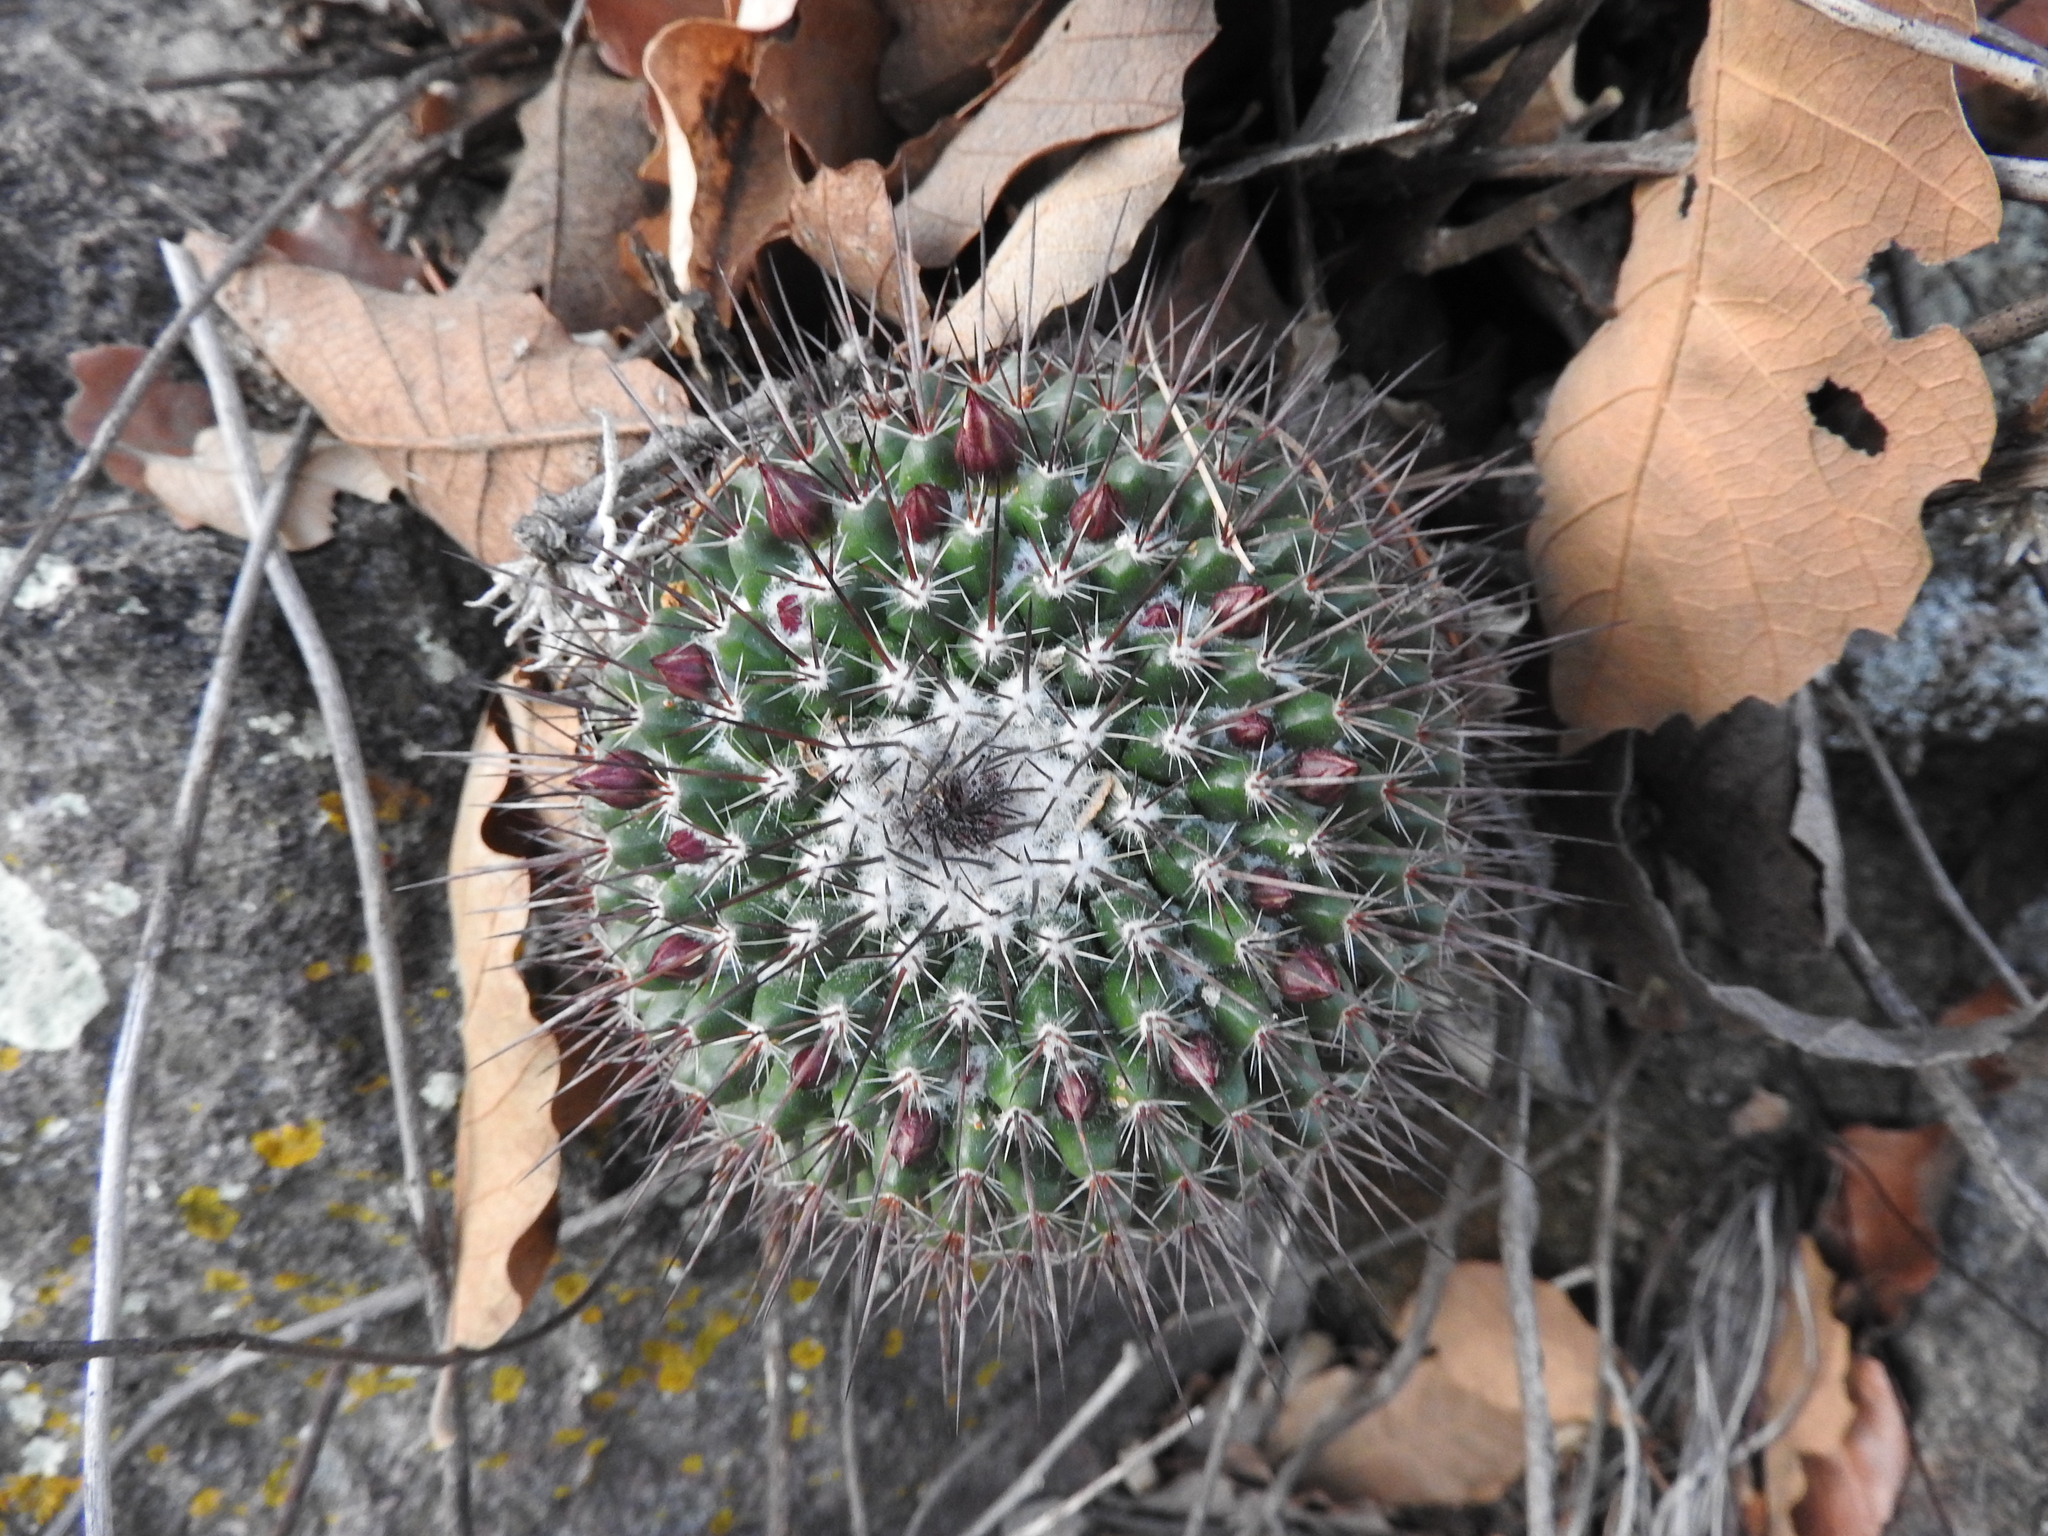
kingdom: Plantae
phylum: Tracheophyta
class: Magnoliopsida
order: Caryophyllales
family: Cactaceae
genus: Mammillaria
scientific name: Mammillaria gigantea
